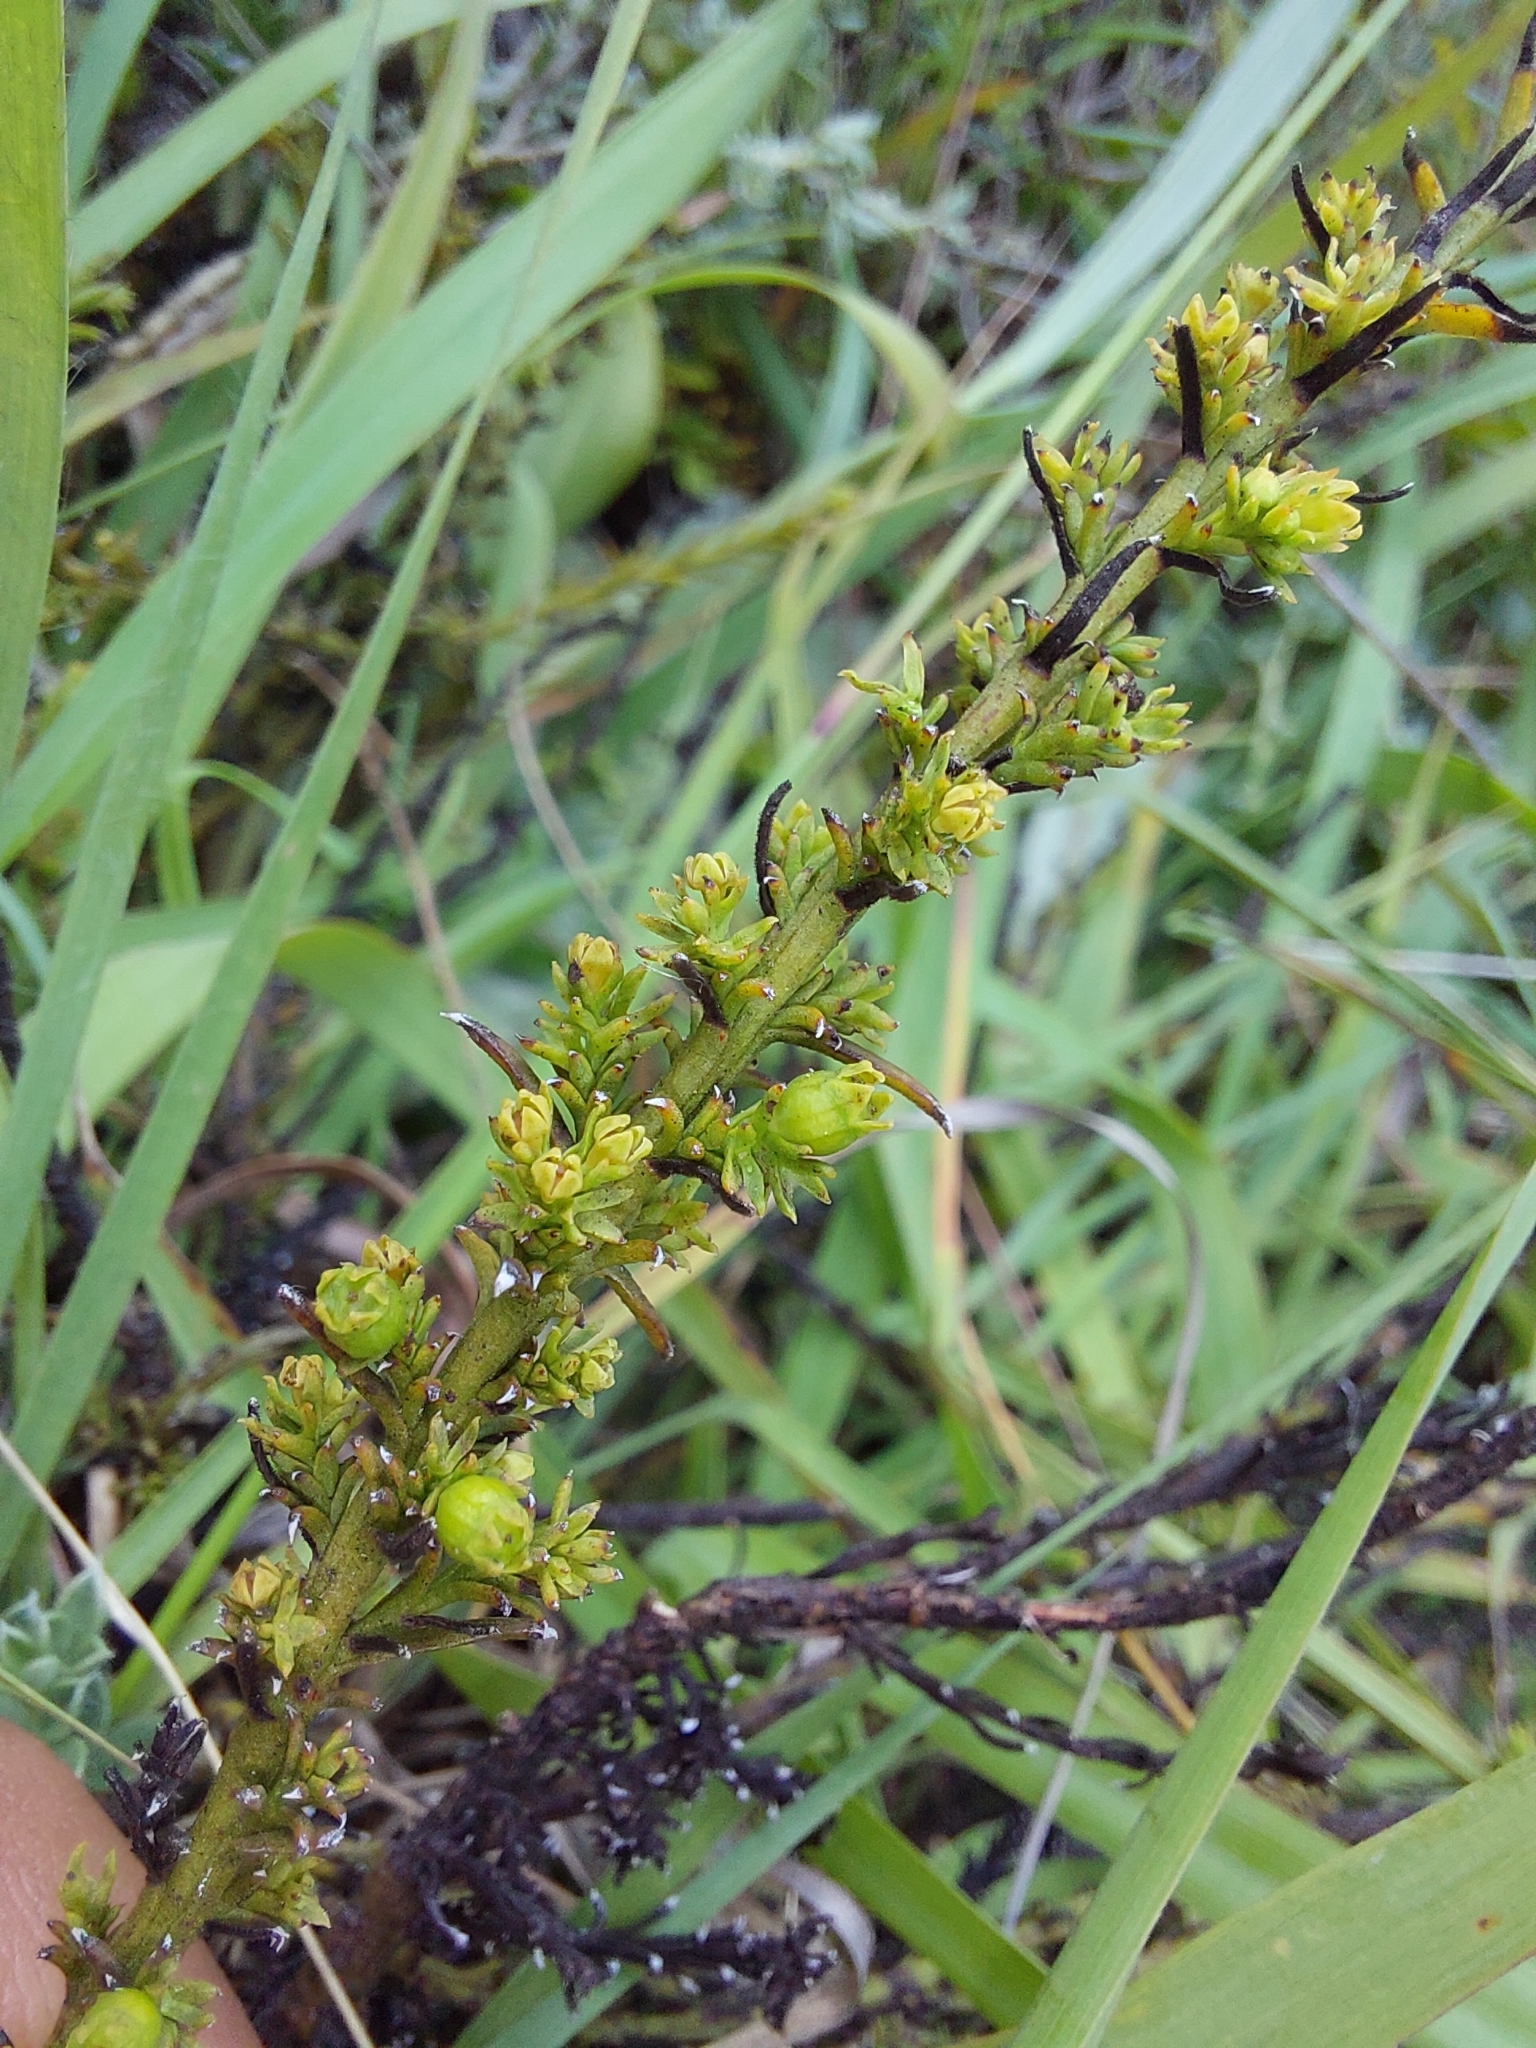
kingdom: Plantae
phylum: Tracheophyta
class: Magnoliopsida
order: Santalales
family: Thesiaceae
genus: Thesium
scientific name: Thesium cupressoides
